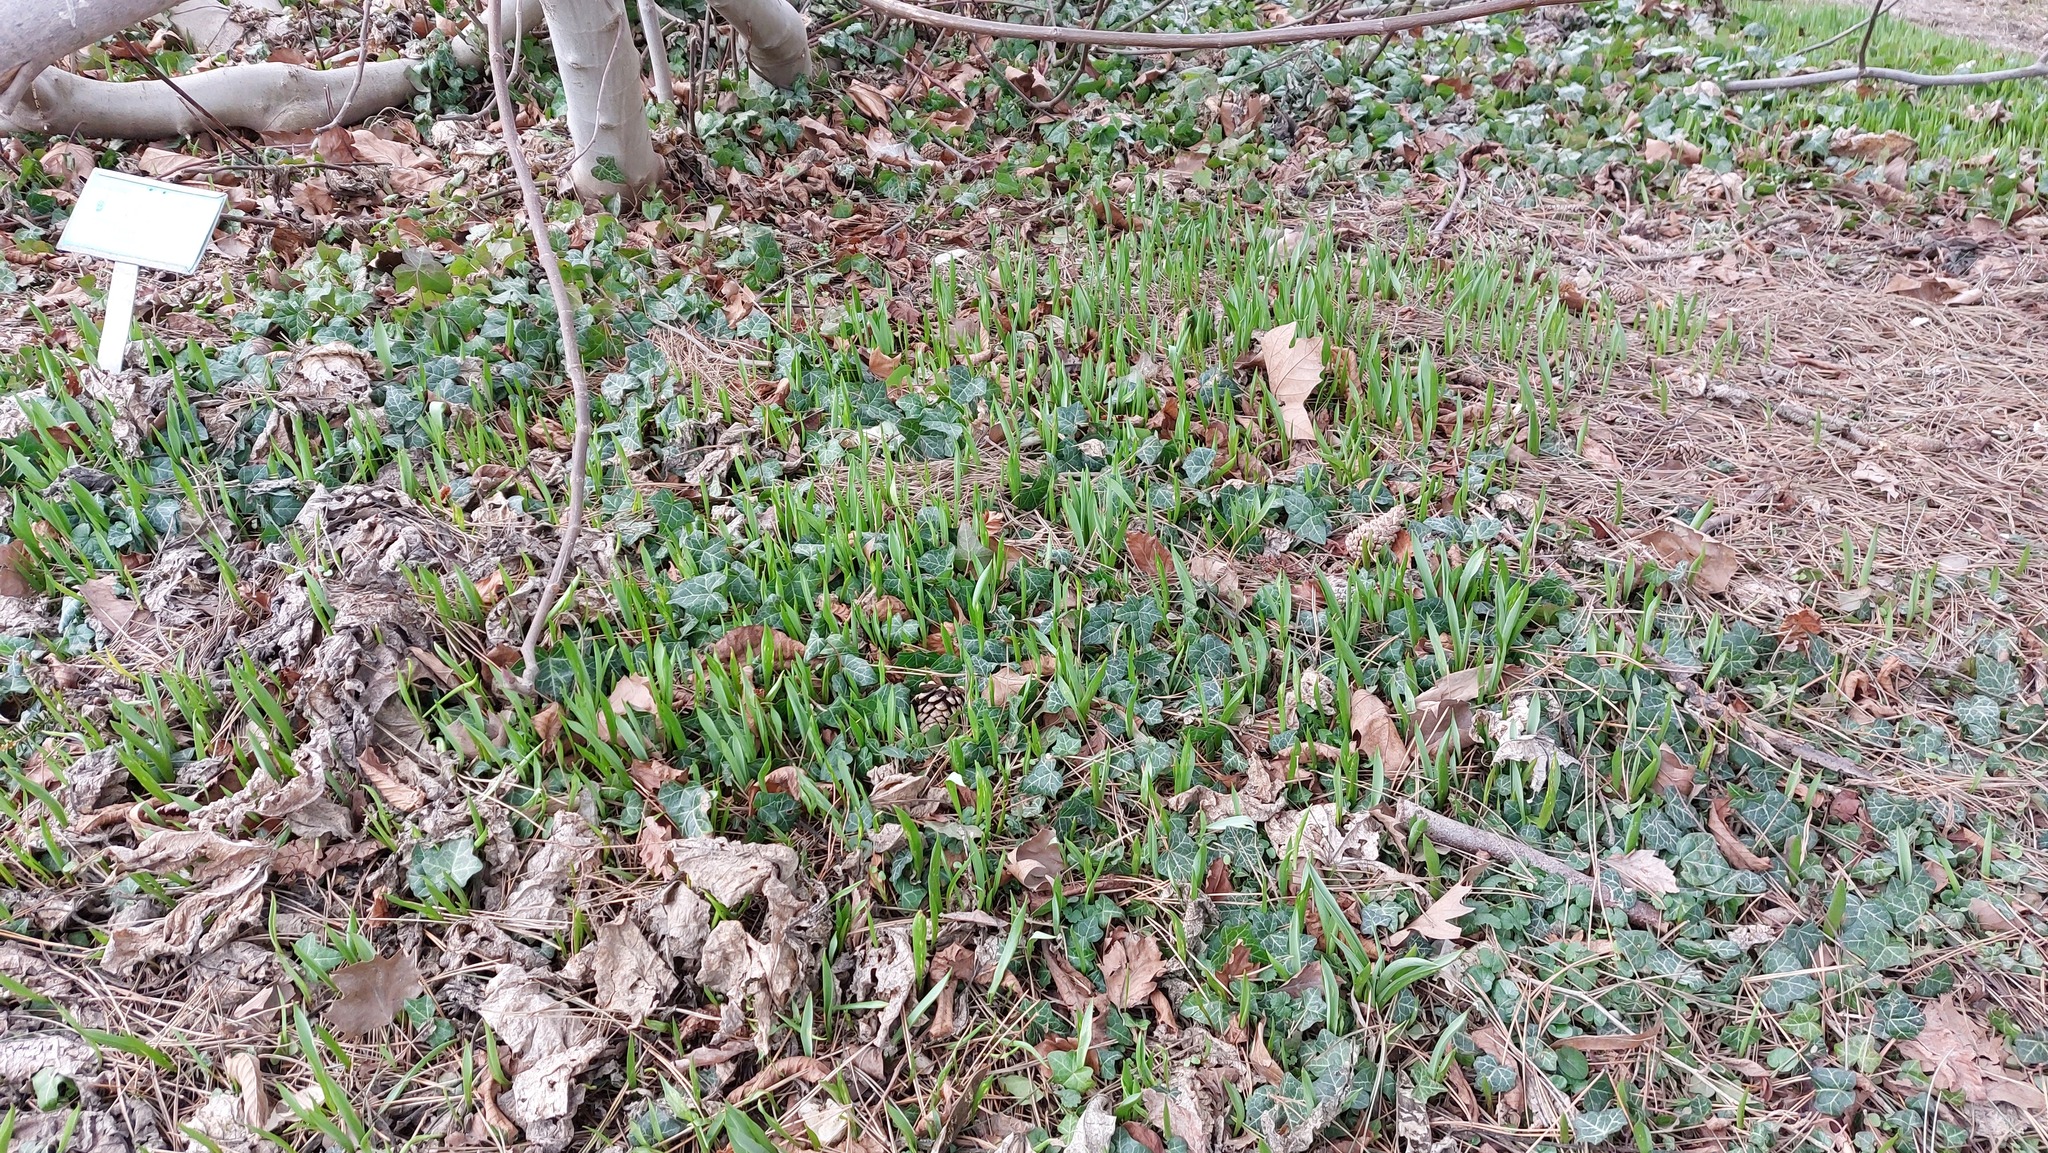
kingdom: Plantae
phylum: Tracheophyta
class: Liliopsida
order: Liliales
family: Liliaceae
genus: Tulipa
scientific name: Tulipa sylvestris
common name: Wild tulip
